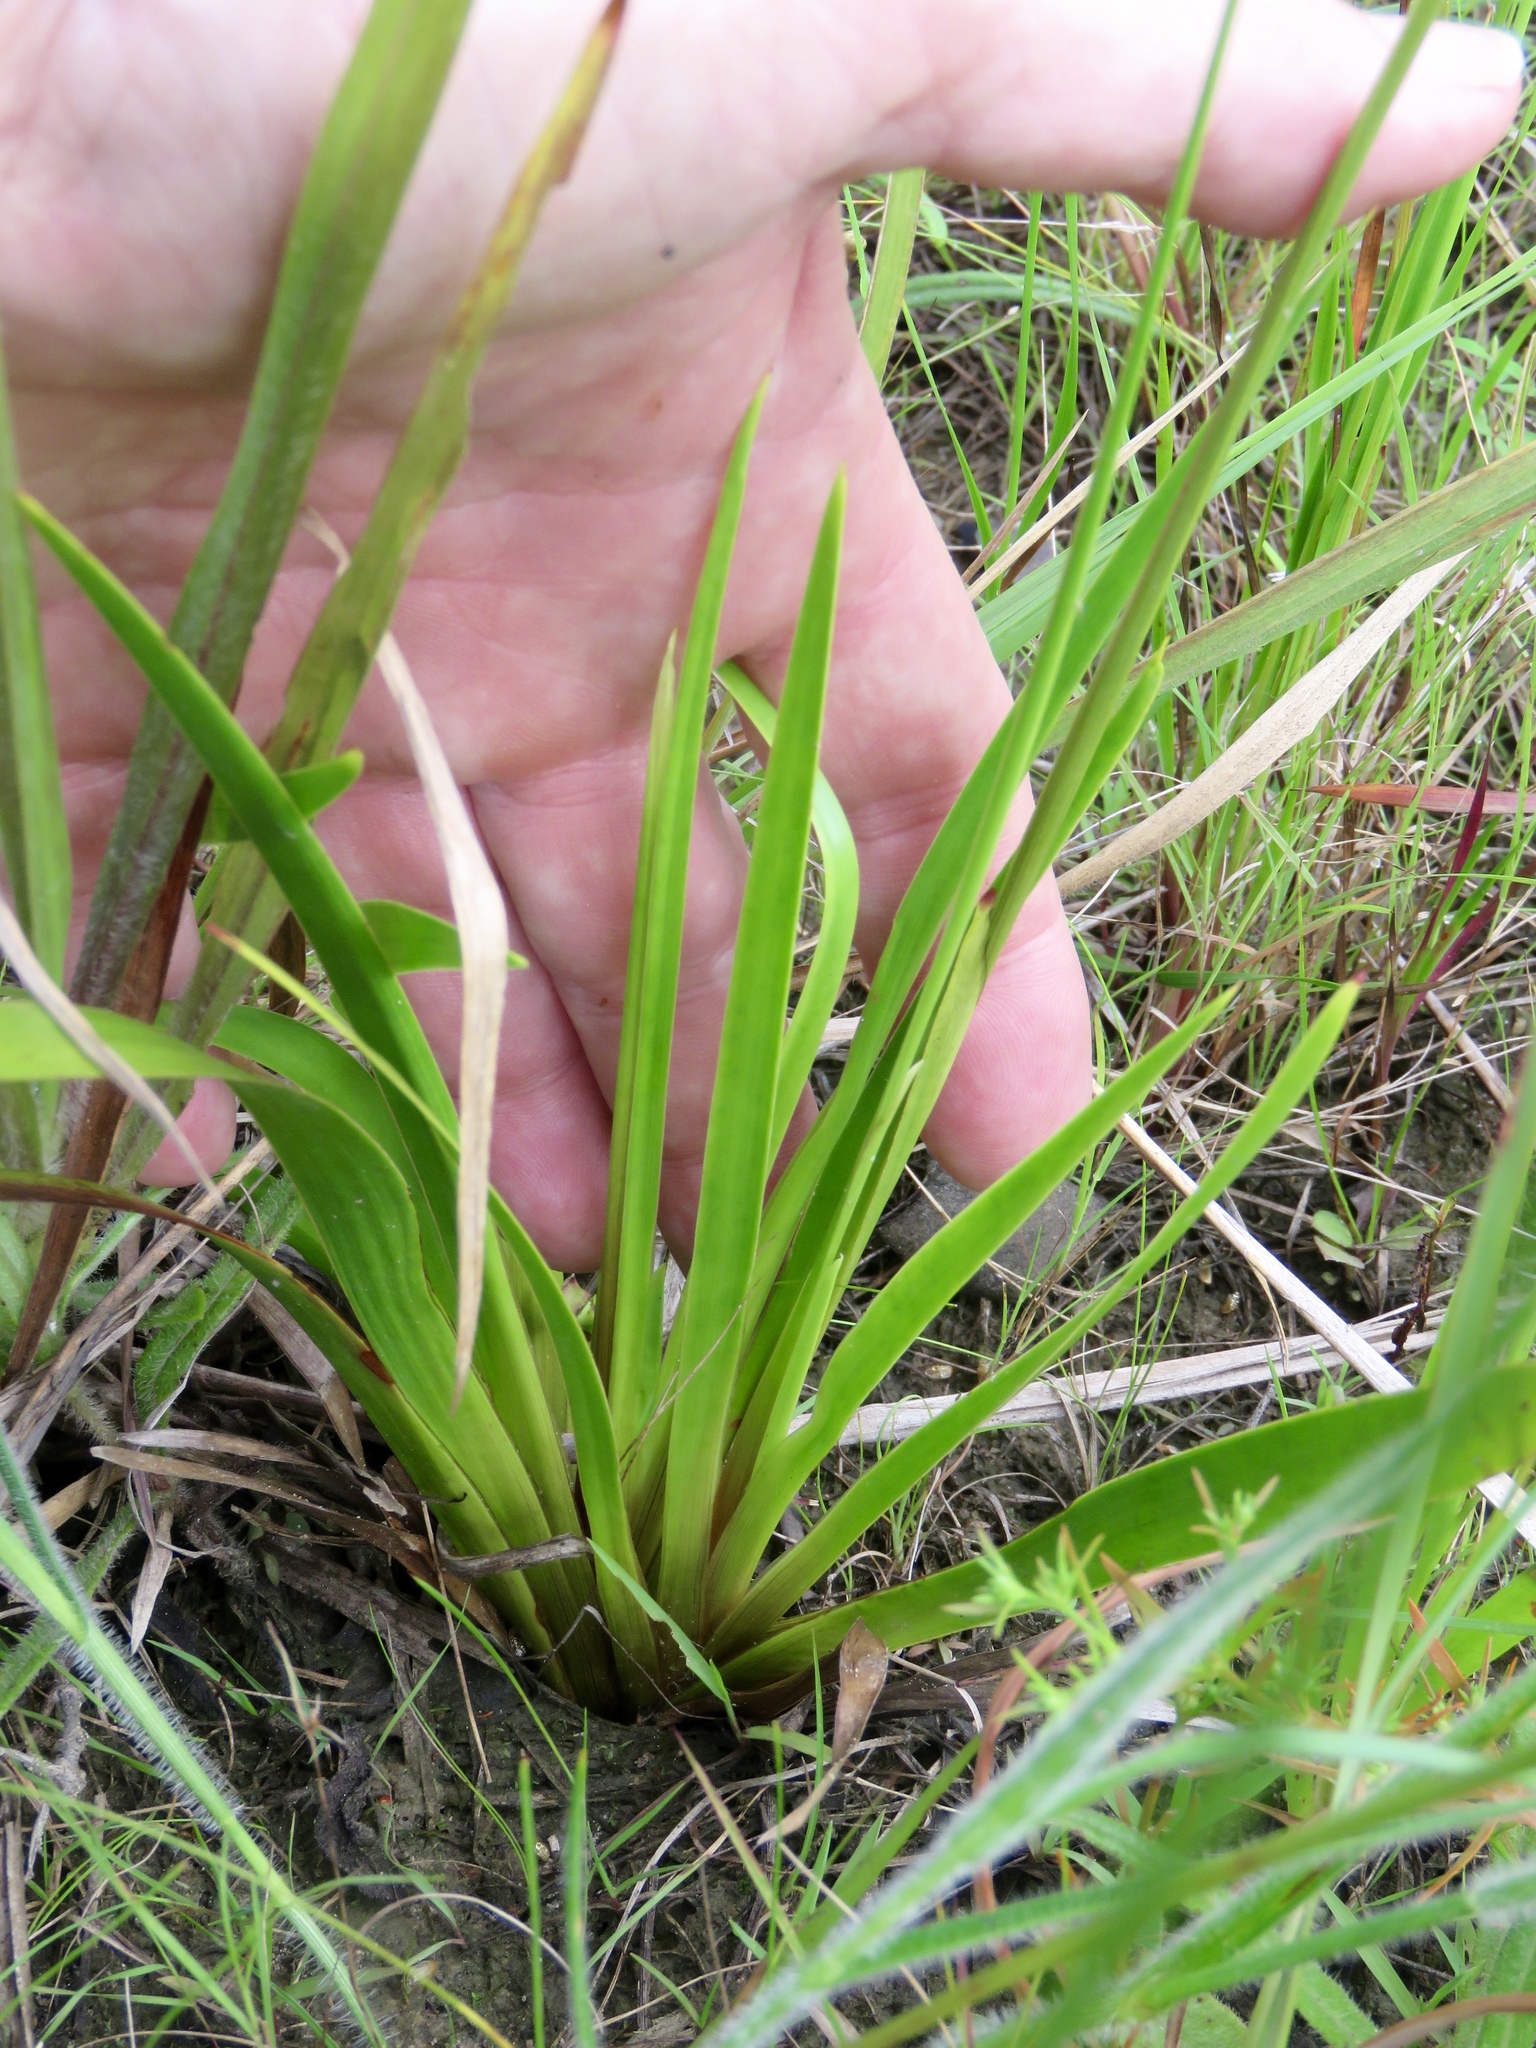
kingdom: Plantae
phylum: Tracheophyta
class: Liliopsida
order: Poales
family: Xyridaceae
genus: Xyris
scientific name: Xyris jupicai
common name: Richard's yelloweyed grass
